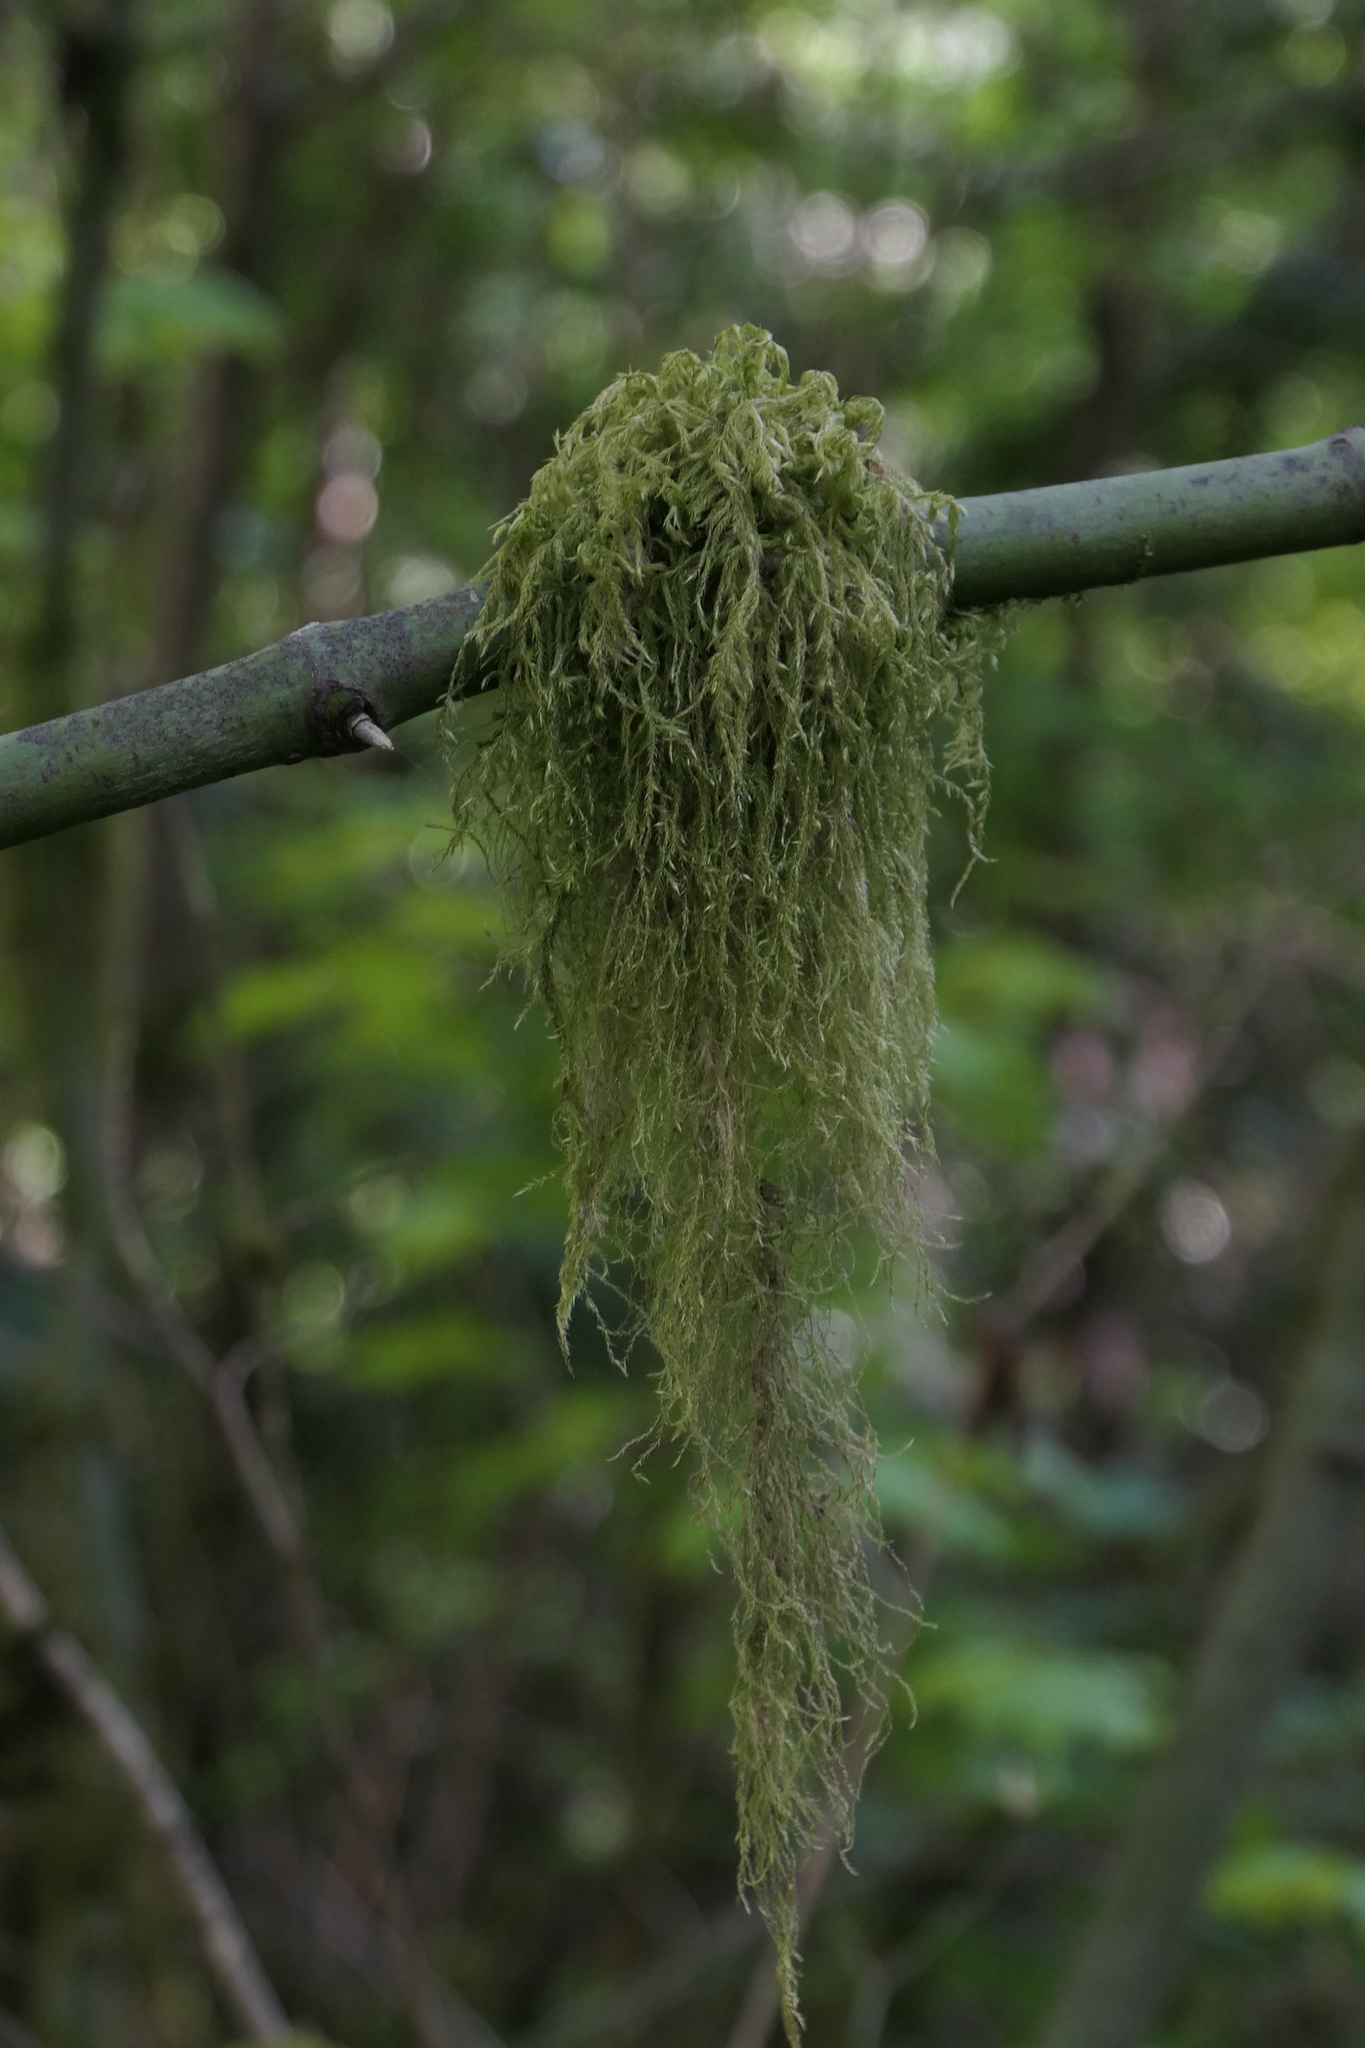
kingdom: Plantae
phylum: Bryophyta
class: Bryopsida
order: Hypnales
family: Lembophyllaceae
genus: Pseudisothecium
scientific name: Pseudisothecium stoloniferum
